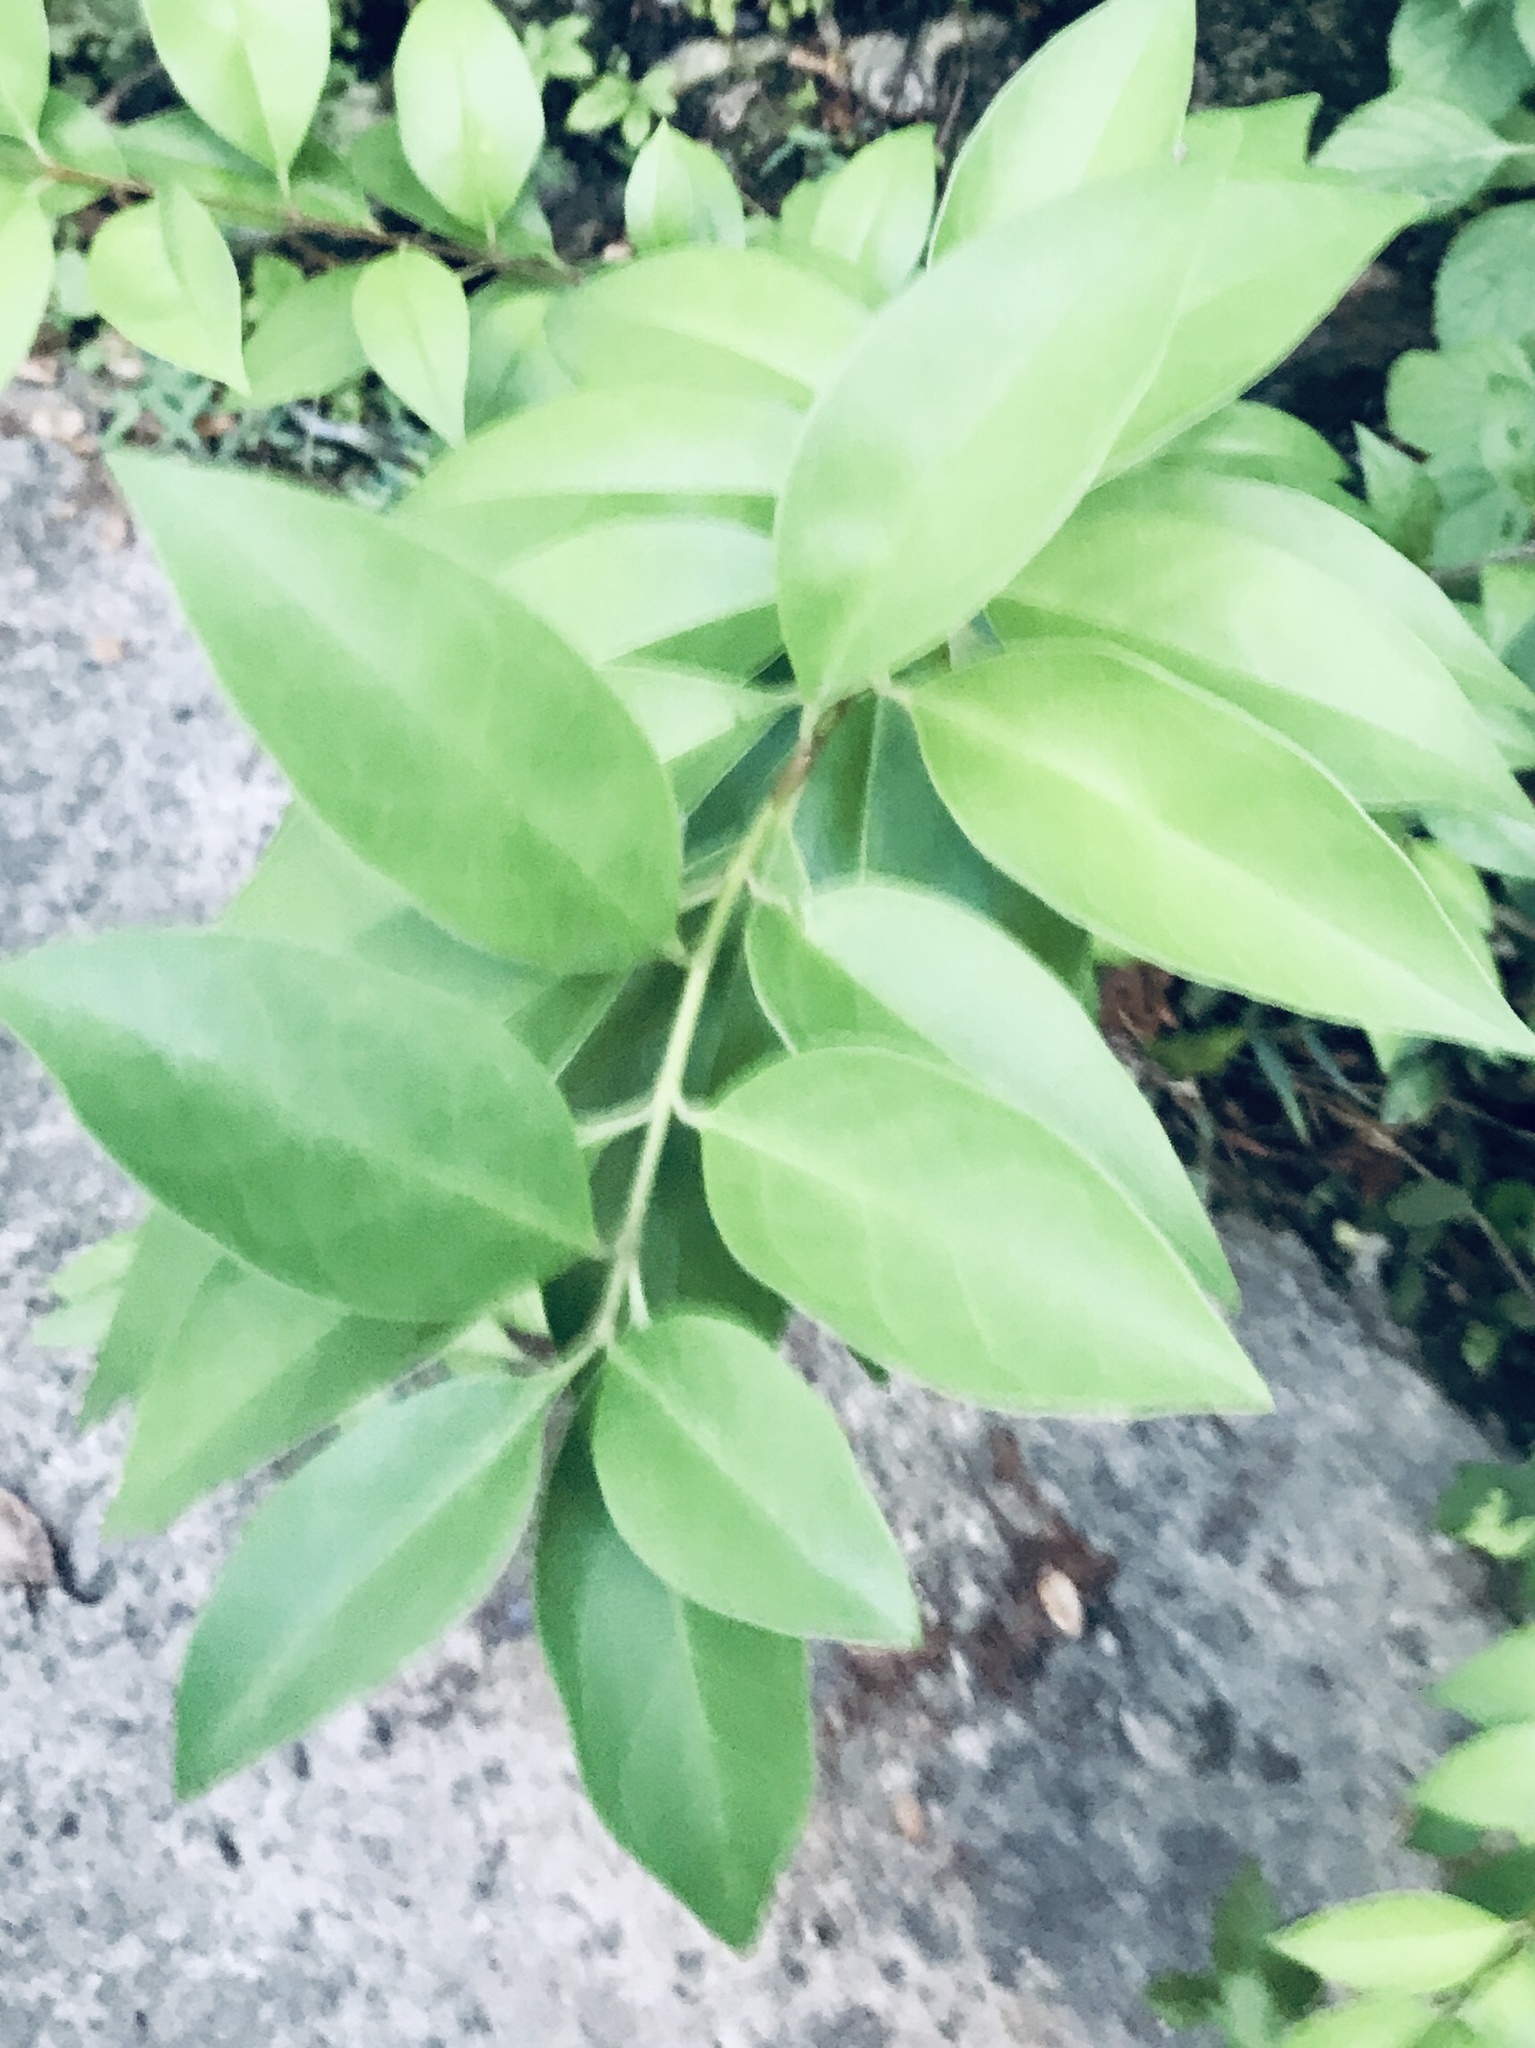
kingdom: Plantae
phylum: Tracheophyta
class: Magnoliopsida
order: Lamiales
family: Oleaceae
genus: Ligustrum
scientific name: Ligustrum lucidum
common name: Glossy privet
